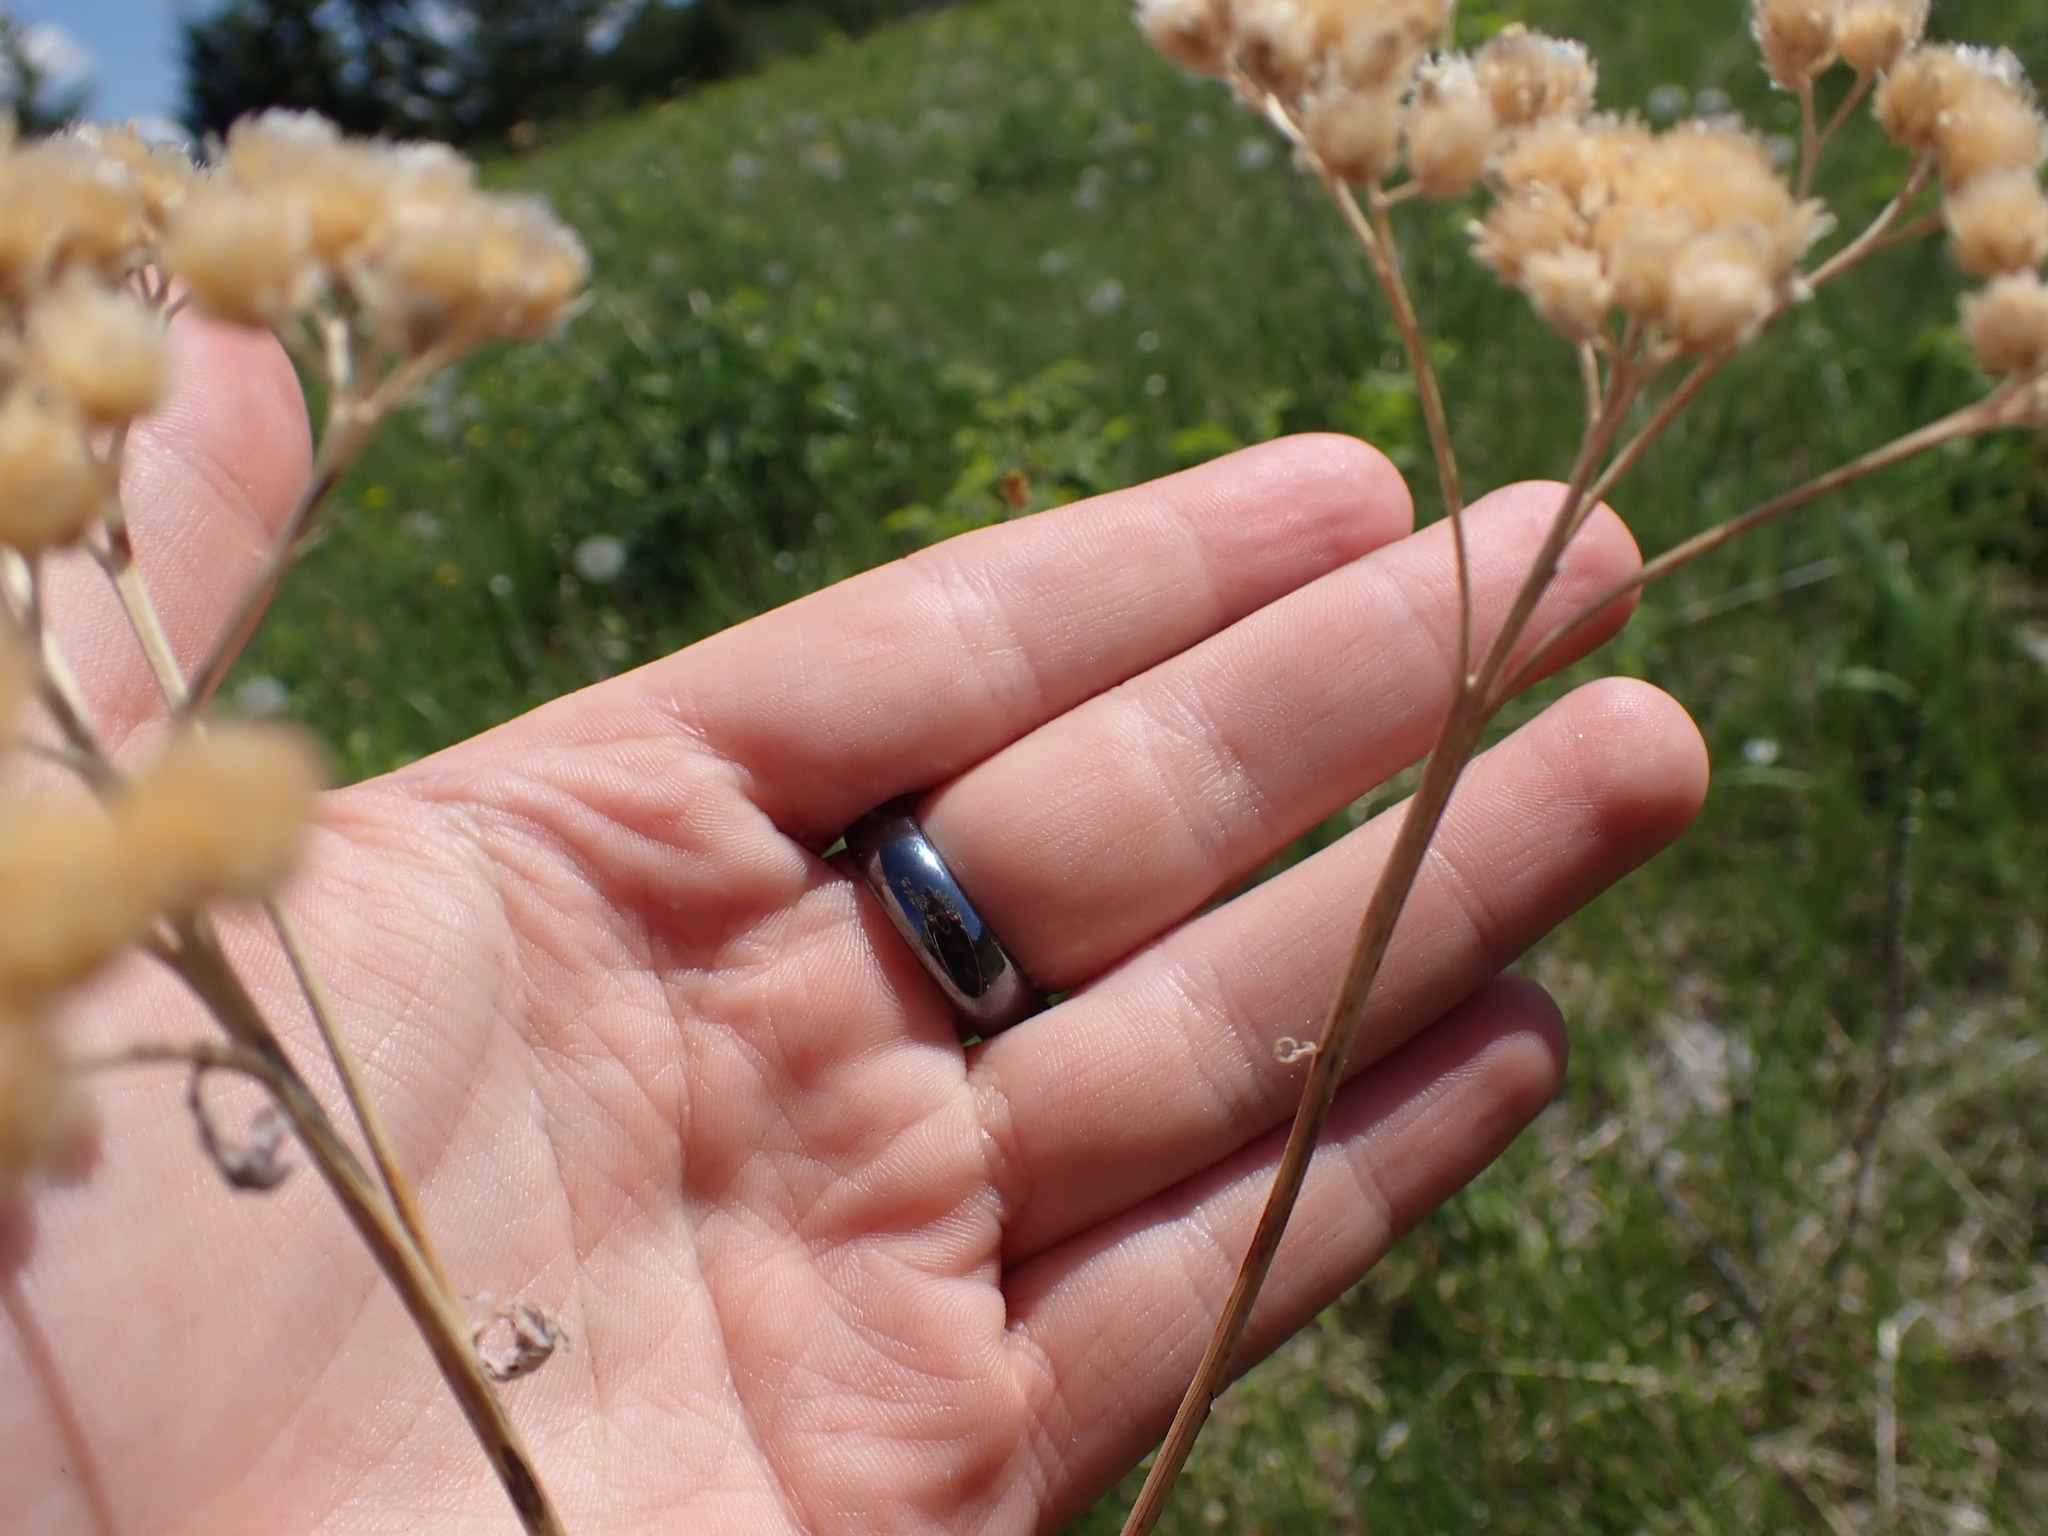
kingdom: Plantae
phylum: Tracheophyta
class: Magnoliopsida
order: Asterales
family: Asteraceae
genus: Achillea
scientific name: Achillea millefolium
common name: Yarrow
